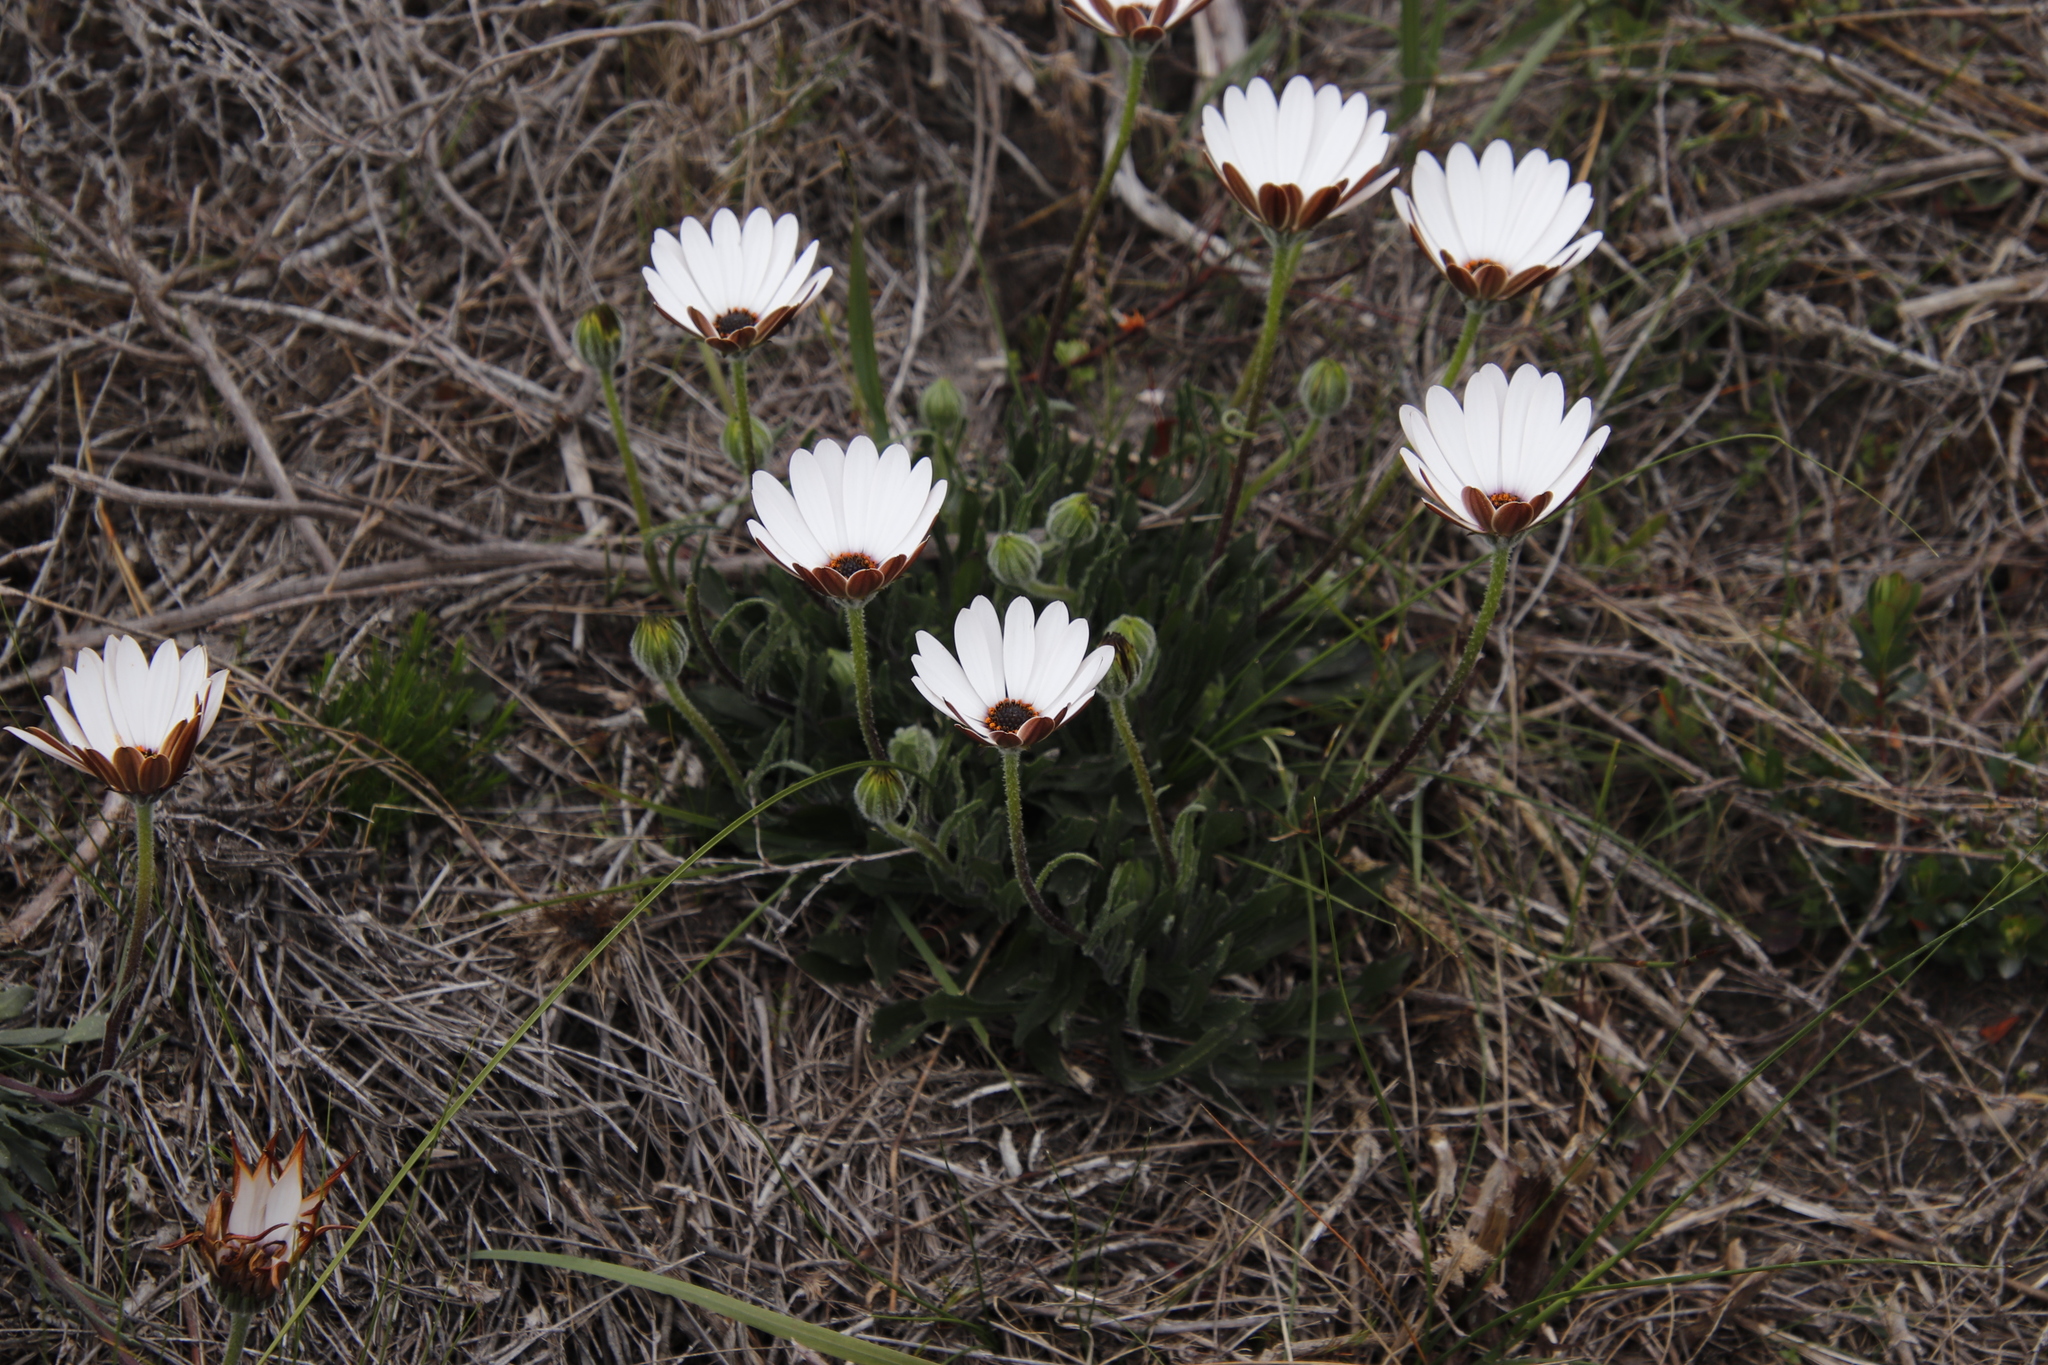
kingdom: Plantae
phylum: Tracheophyta
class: Magnoliopsida
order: Asterales
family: Asteraceae
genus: Dimorphotheca
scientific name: Dimorphotheca nudicaulis
